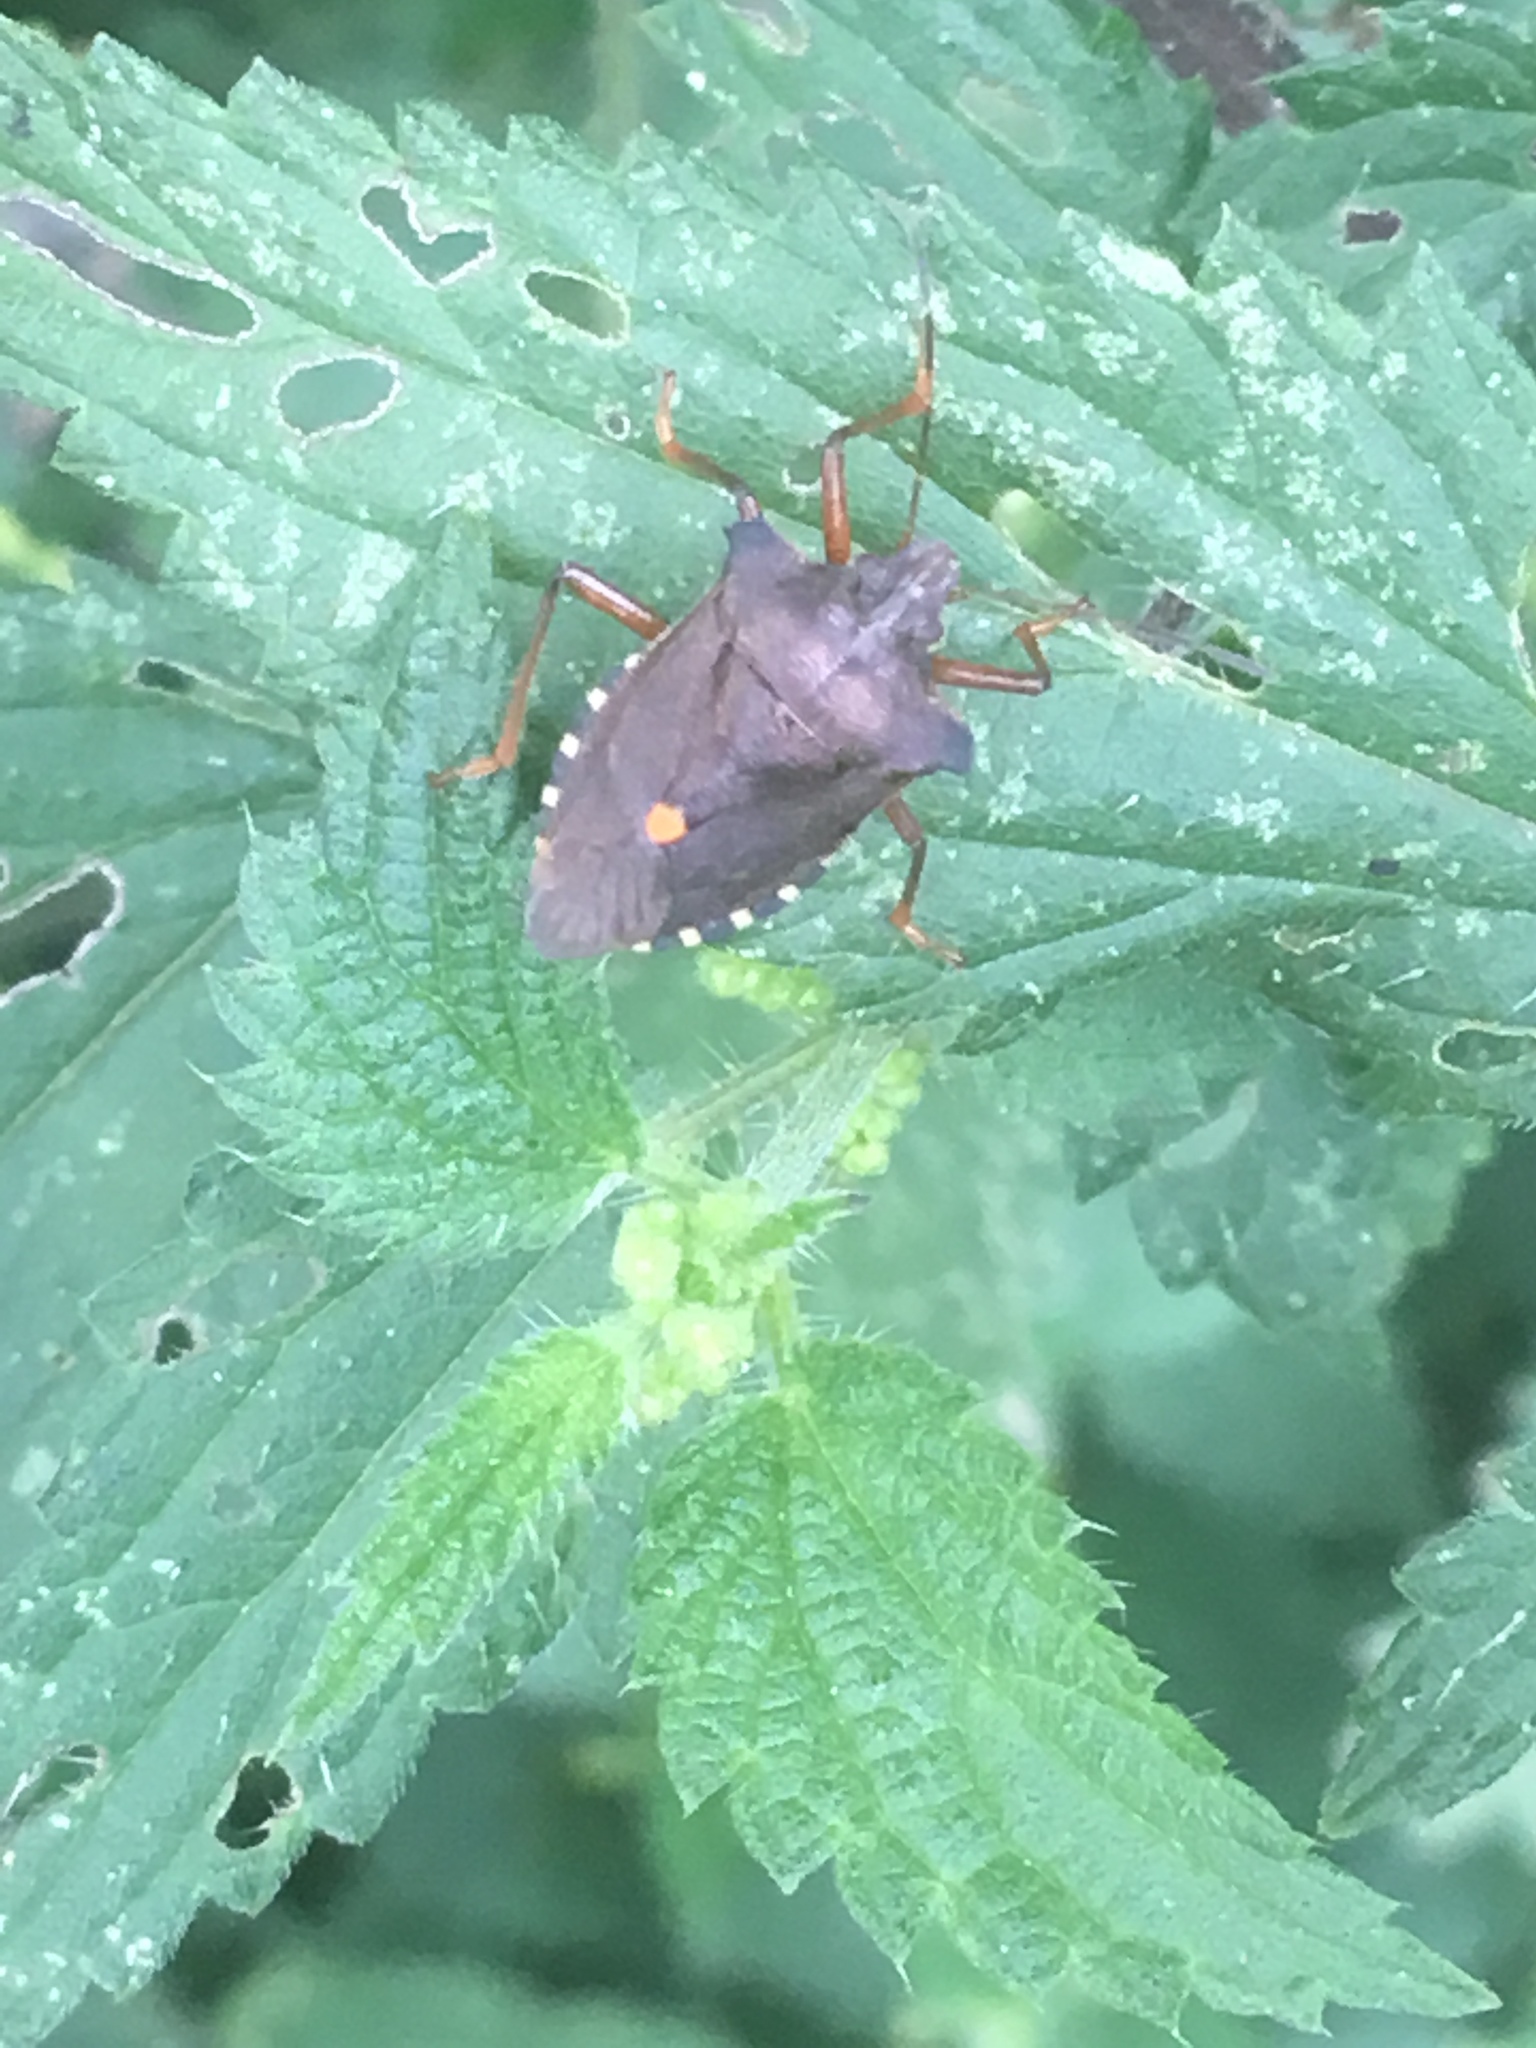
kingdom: Animalia
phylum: Arthropoda
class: Insecta
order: Hemiptera
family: Pentatomidae
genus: Pentatoma
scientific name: Pentatoma rufipes
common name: Forest bug
